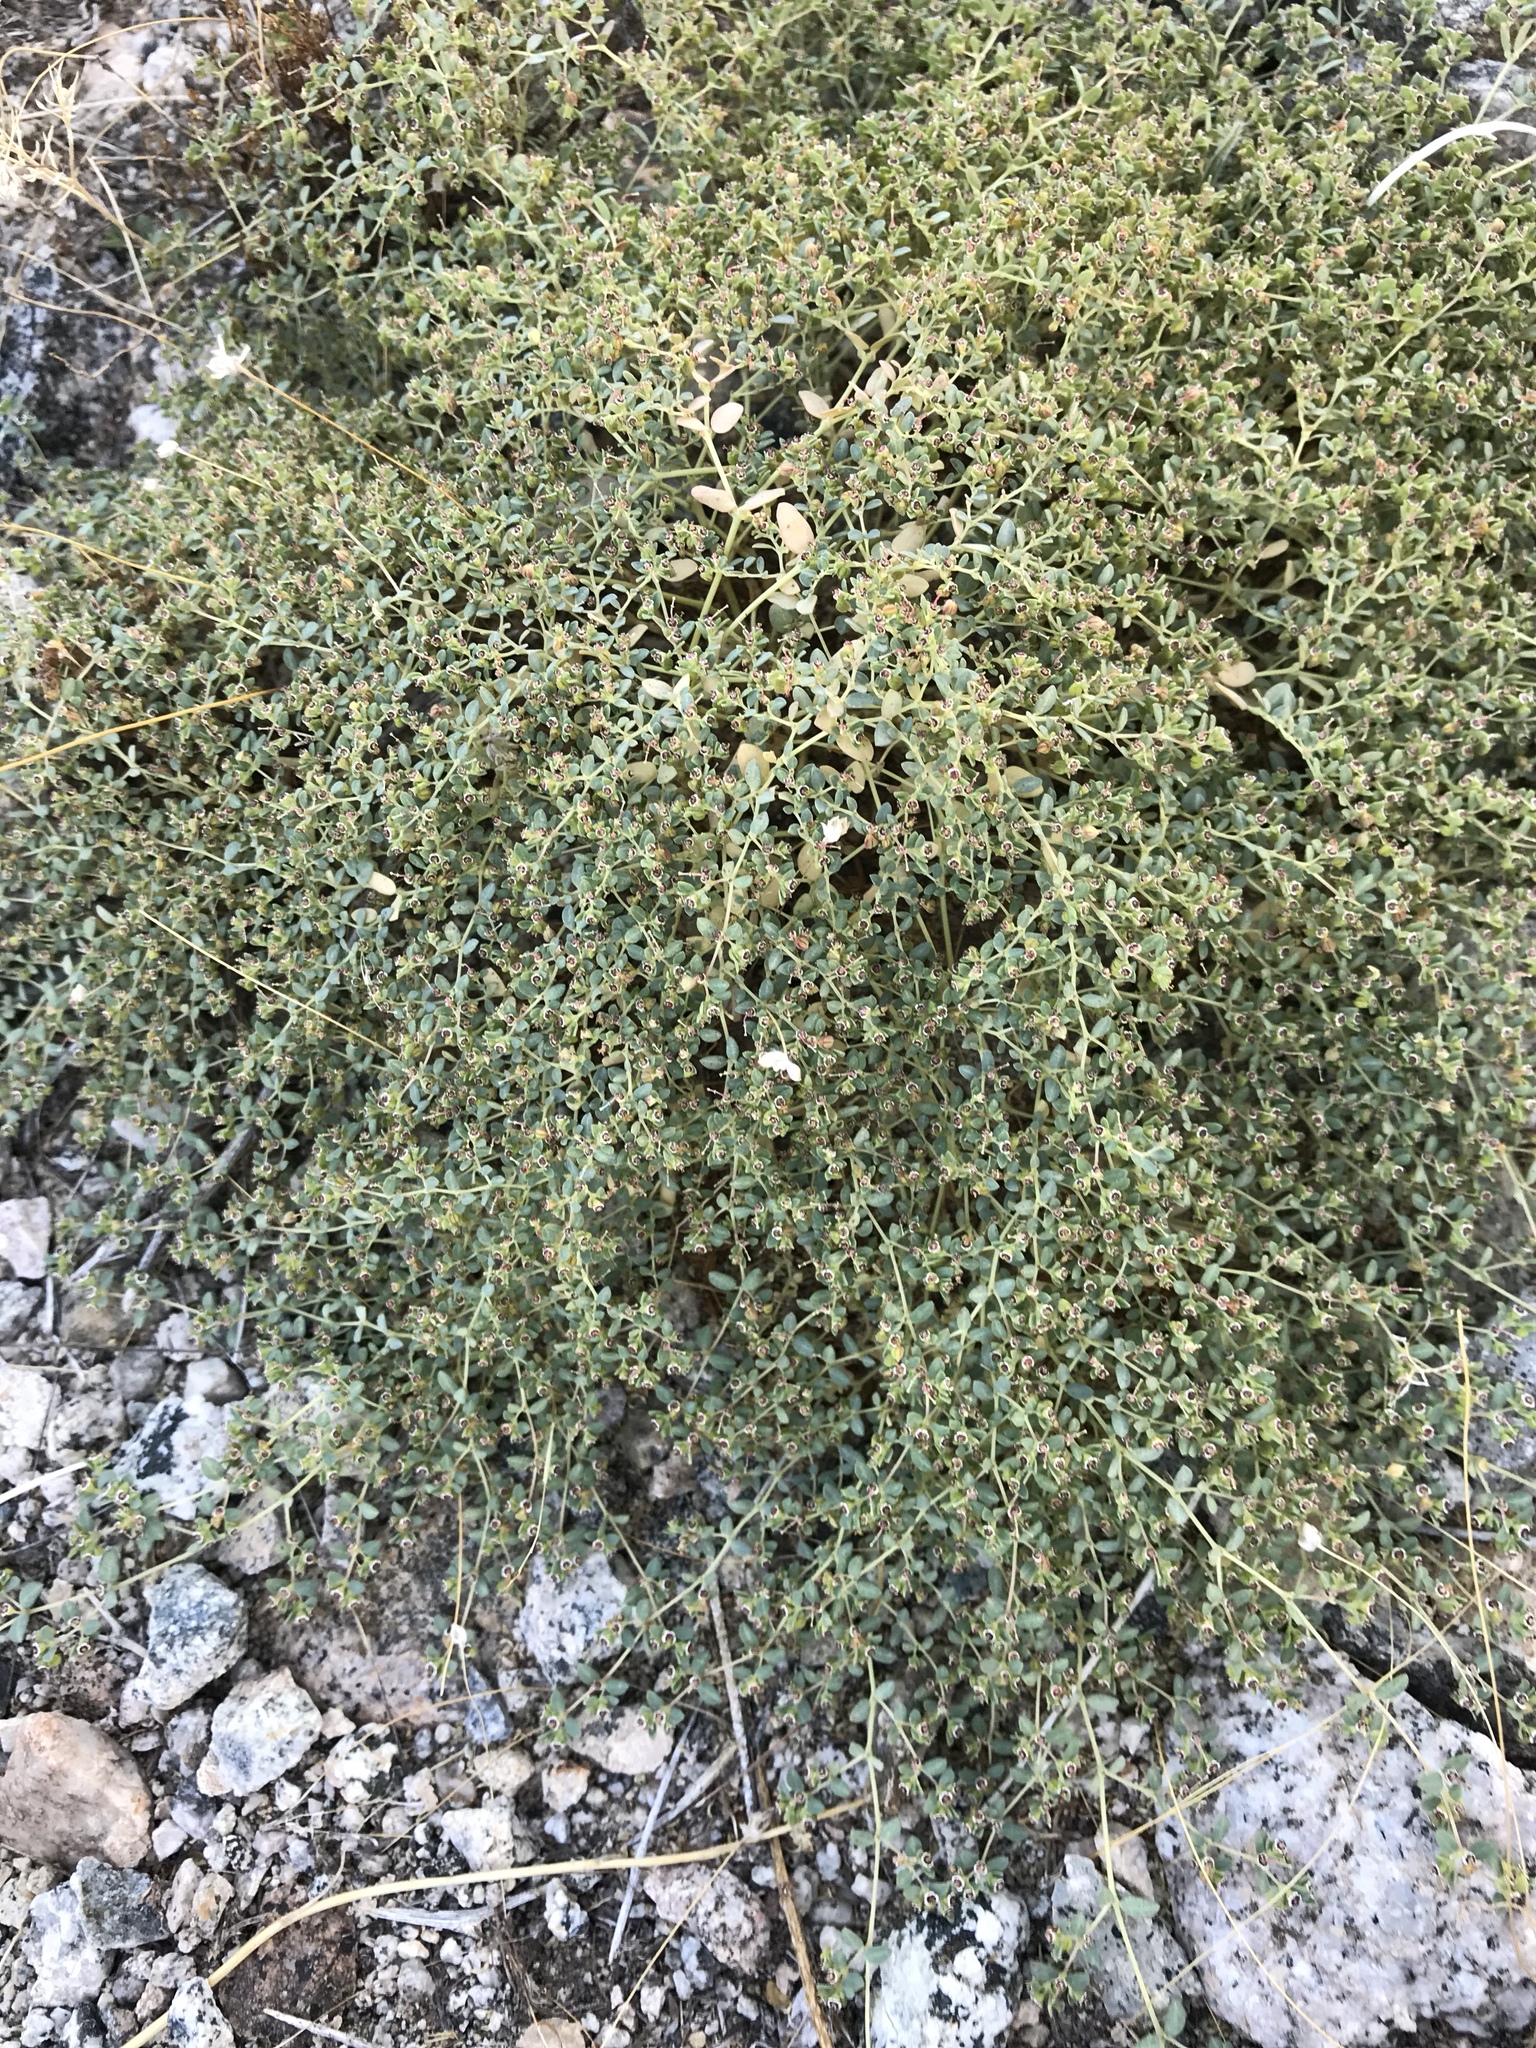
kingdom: Plantae
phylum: Tracheophyta
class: Magnoliopsida
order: Malpighiales
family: Euphorbiaceae
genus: Euphorbia
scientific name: Euphorbia polycarpa
